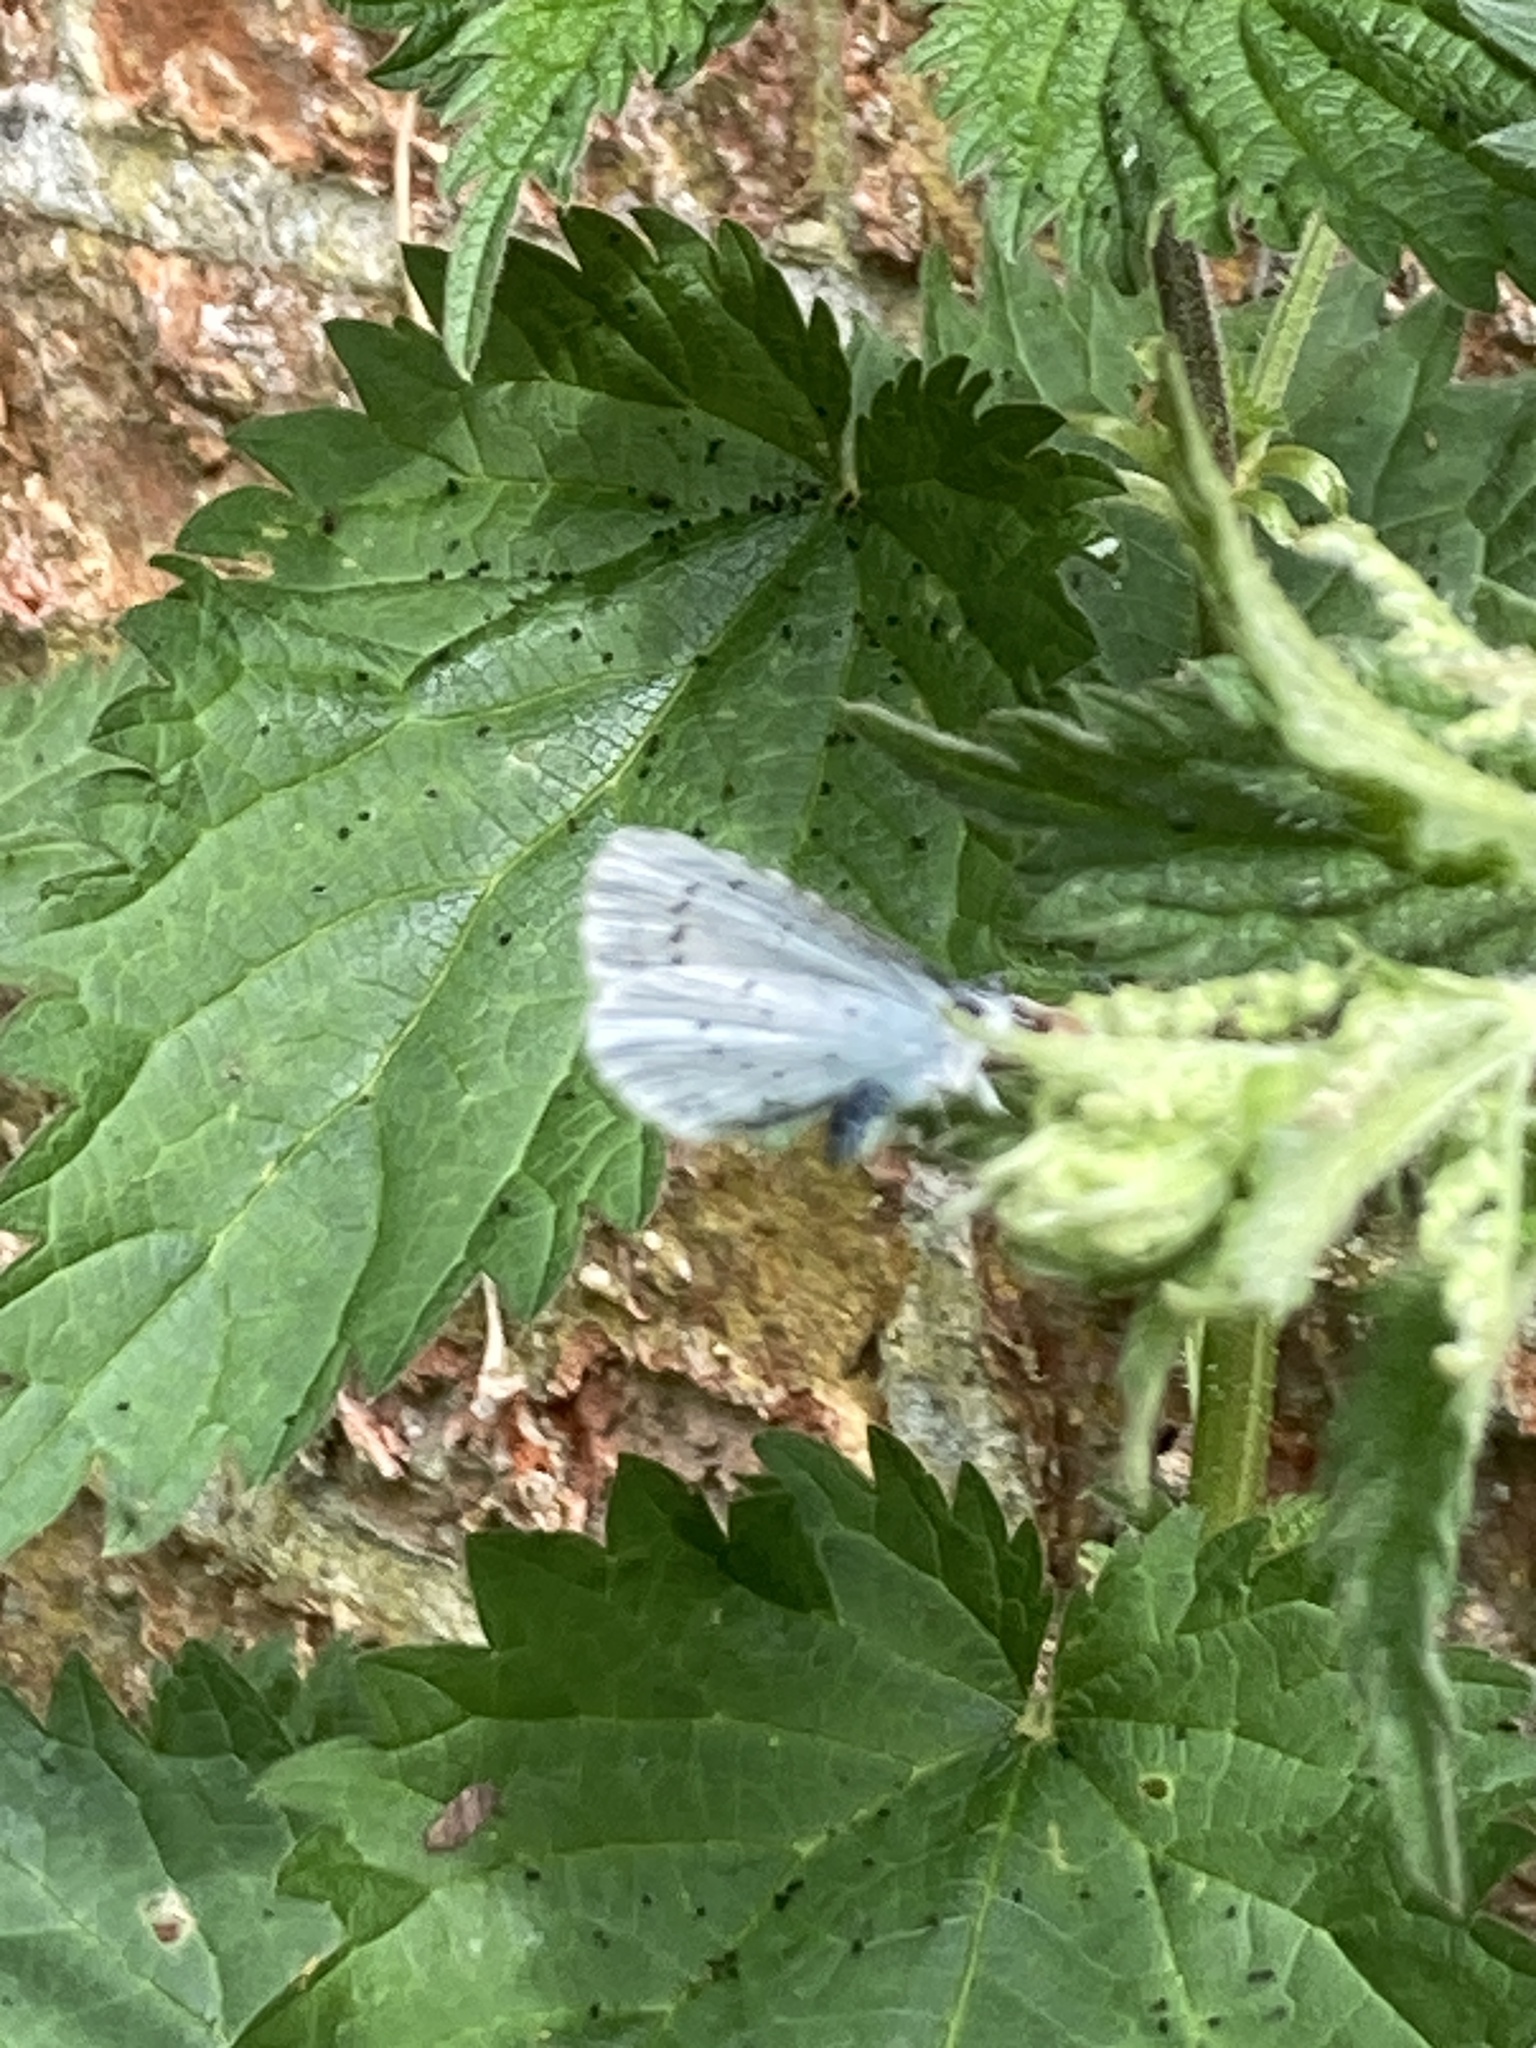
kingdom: Animalia
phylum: Arthropoda
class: Insecta
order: Lepidoptera
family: Lycaenidae
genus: Celastrina
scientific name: Celastrina argiolus
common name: Holly blue
